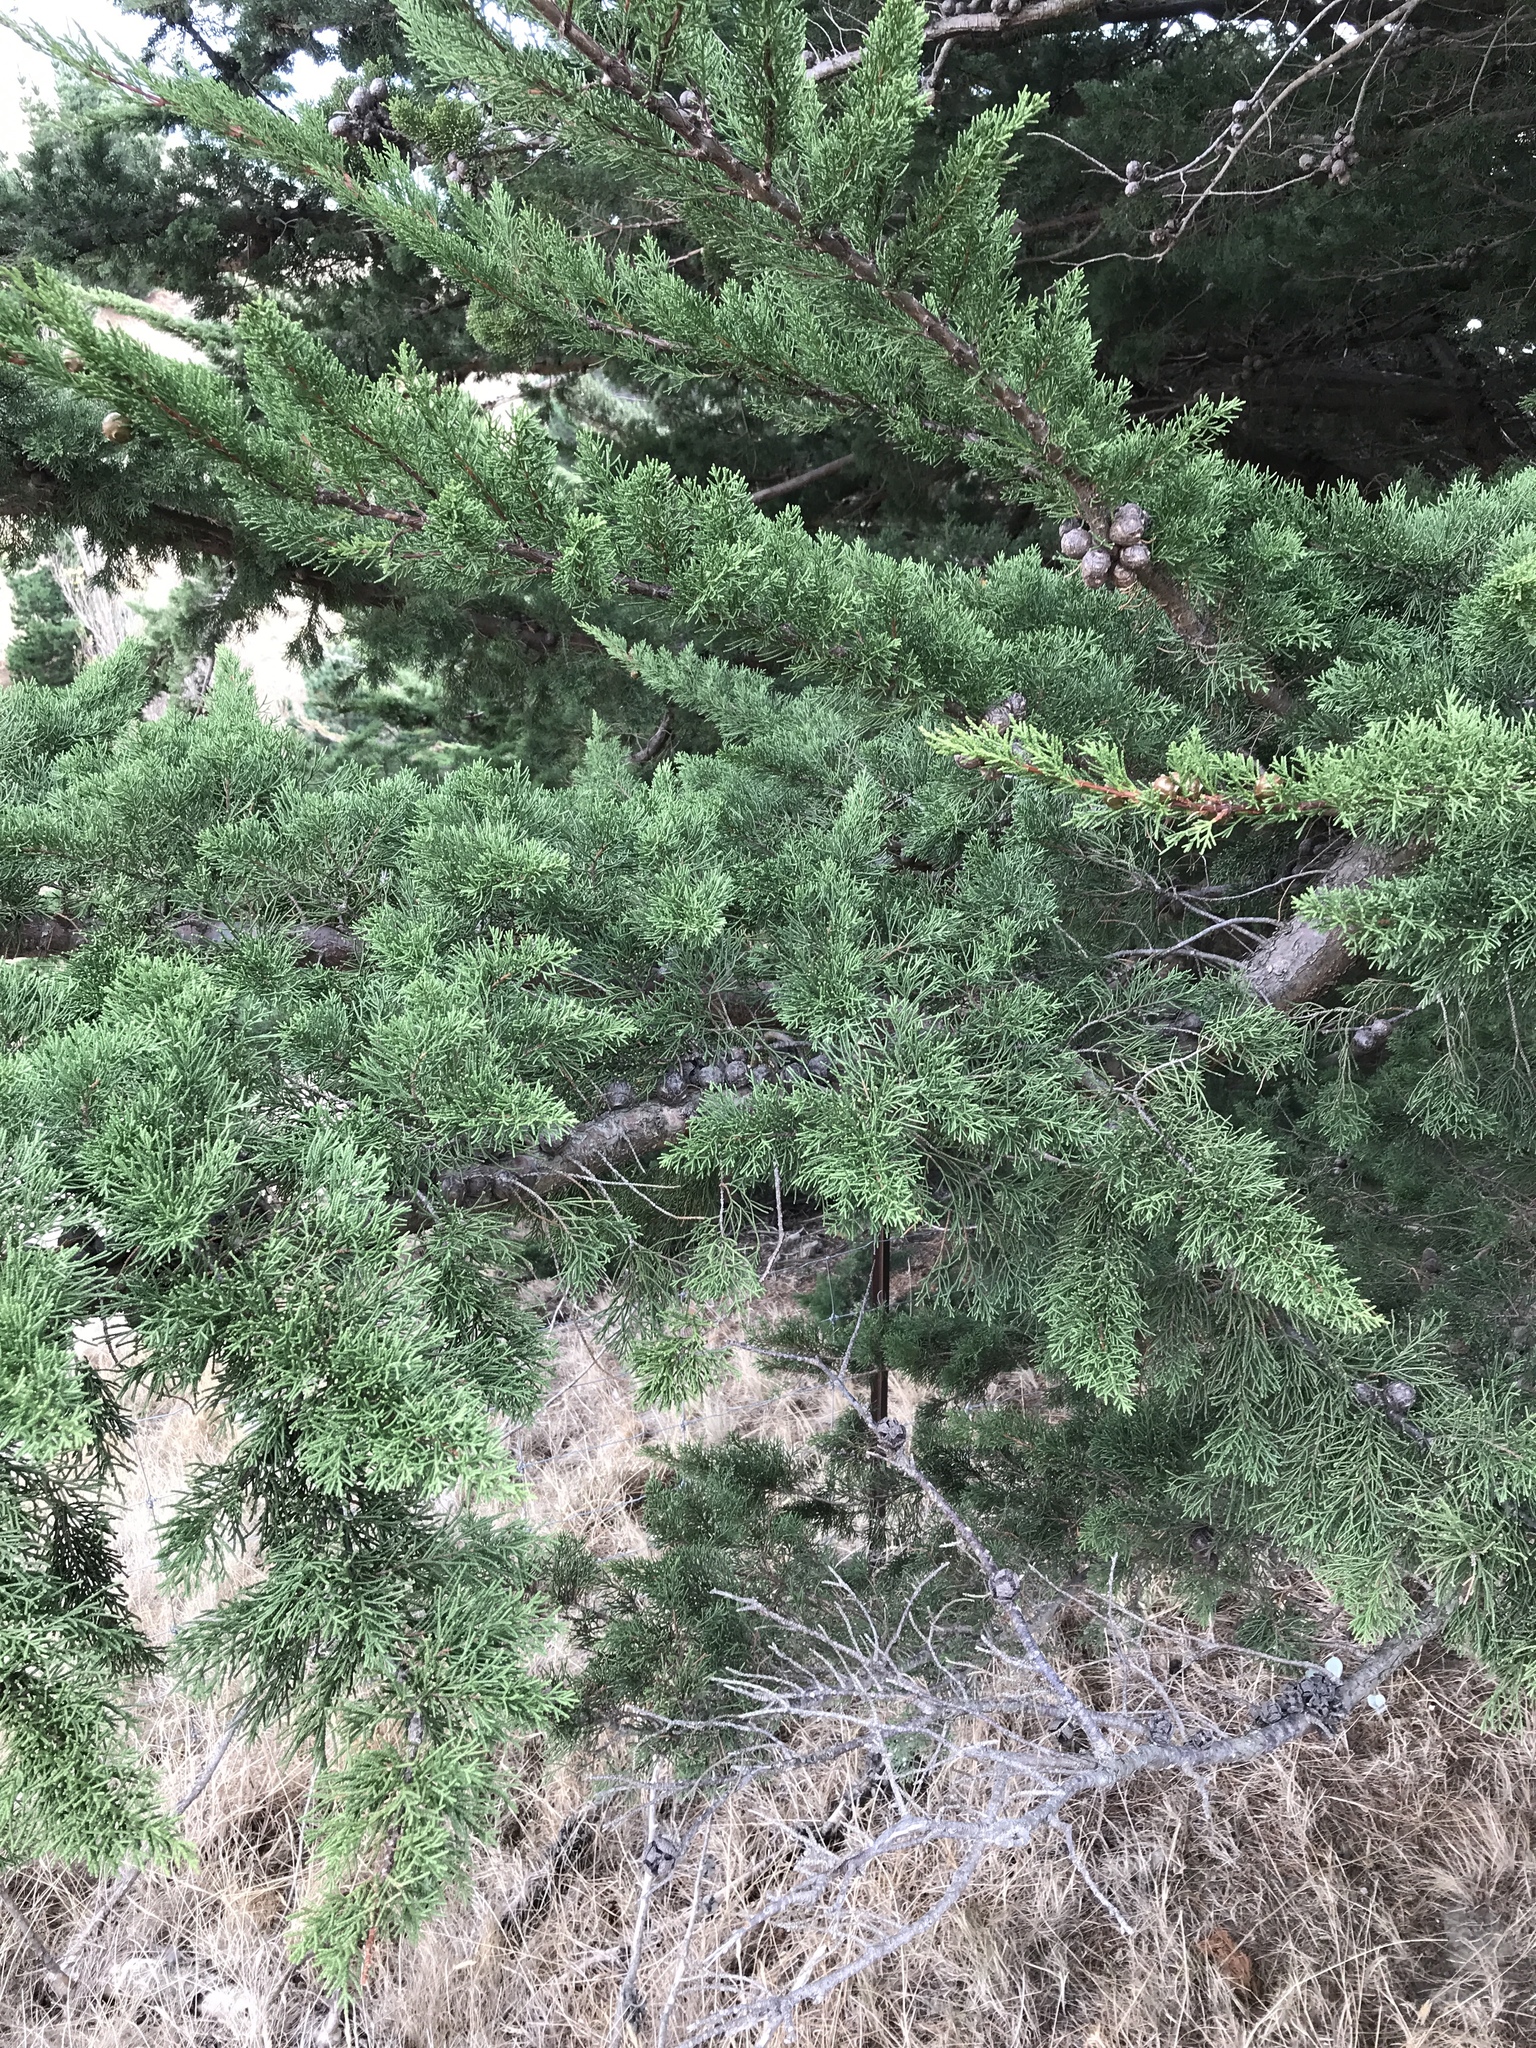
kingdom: Plantae
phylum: Tracheophyta
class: Pinopsida
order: Pinales
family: Cupressaceae
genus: Cupressus
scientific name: Cupressus macrocarpa
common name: Monterey cypress
